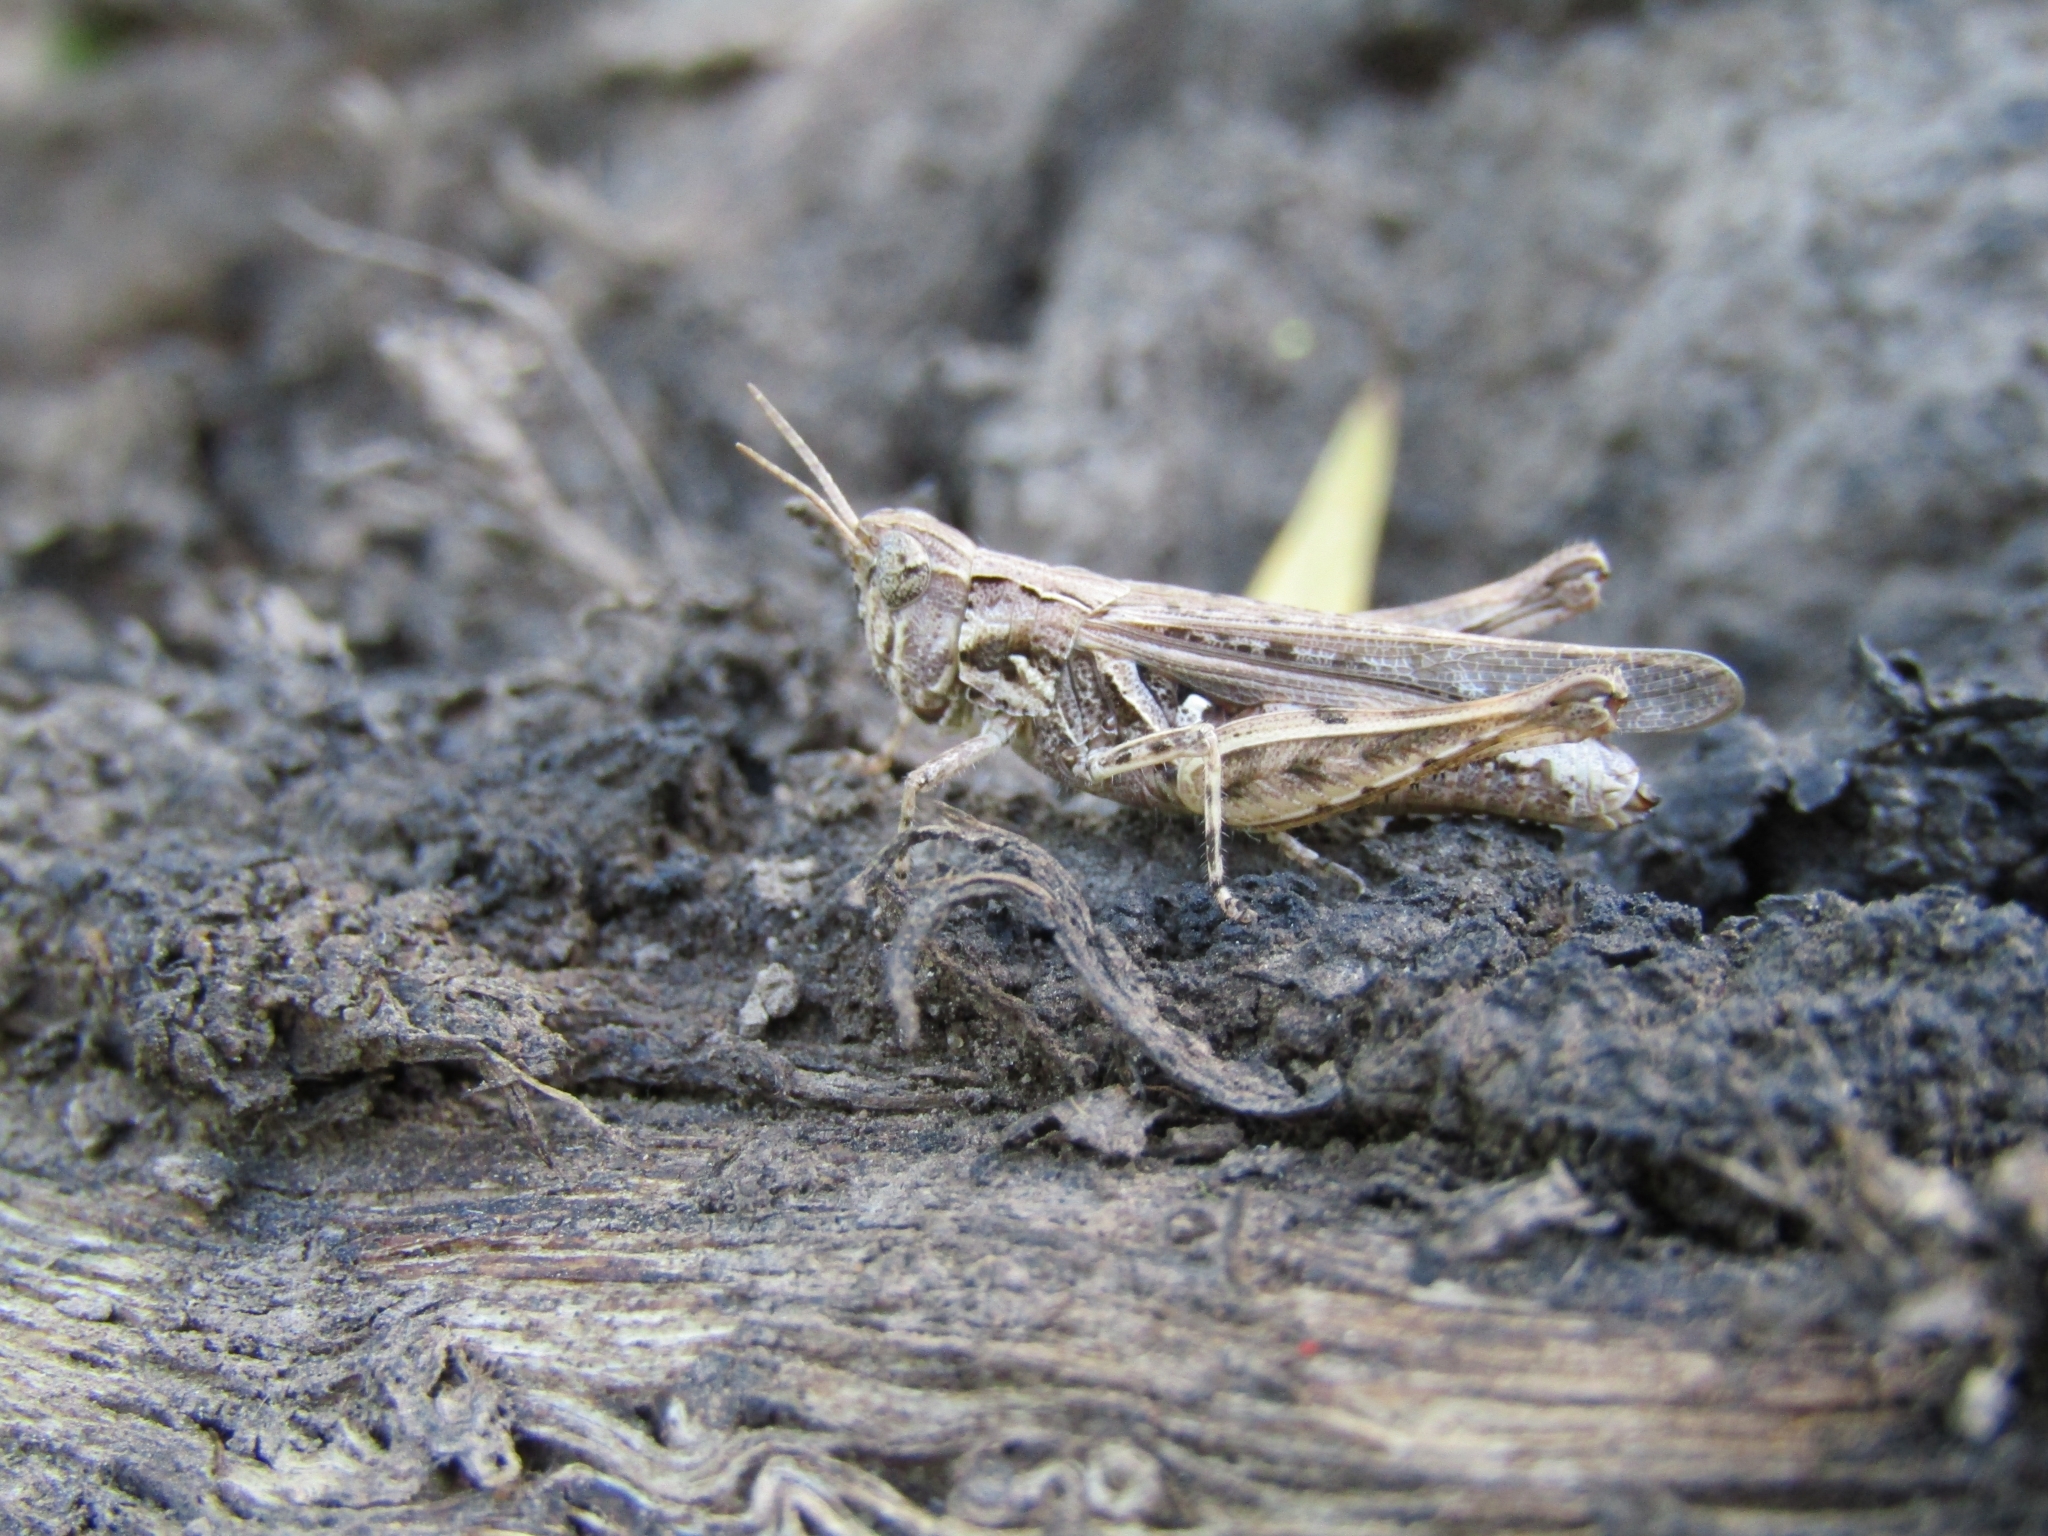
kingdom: Animalia
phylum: Arthropoda
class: Insecta
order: Orthoptera
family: Acrididae
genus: Orphulella
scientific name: Orphulella punctata
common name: Slant-faced grasshopper
